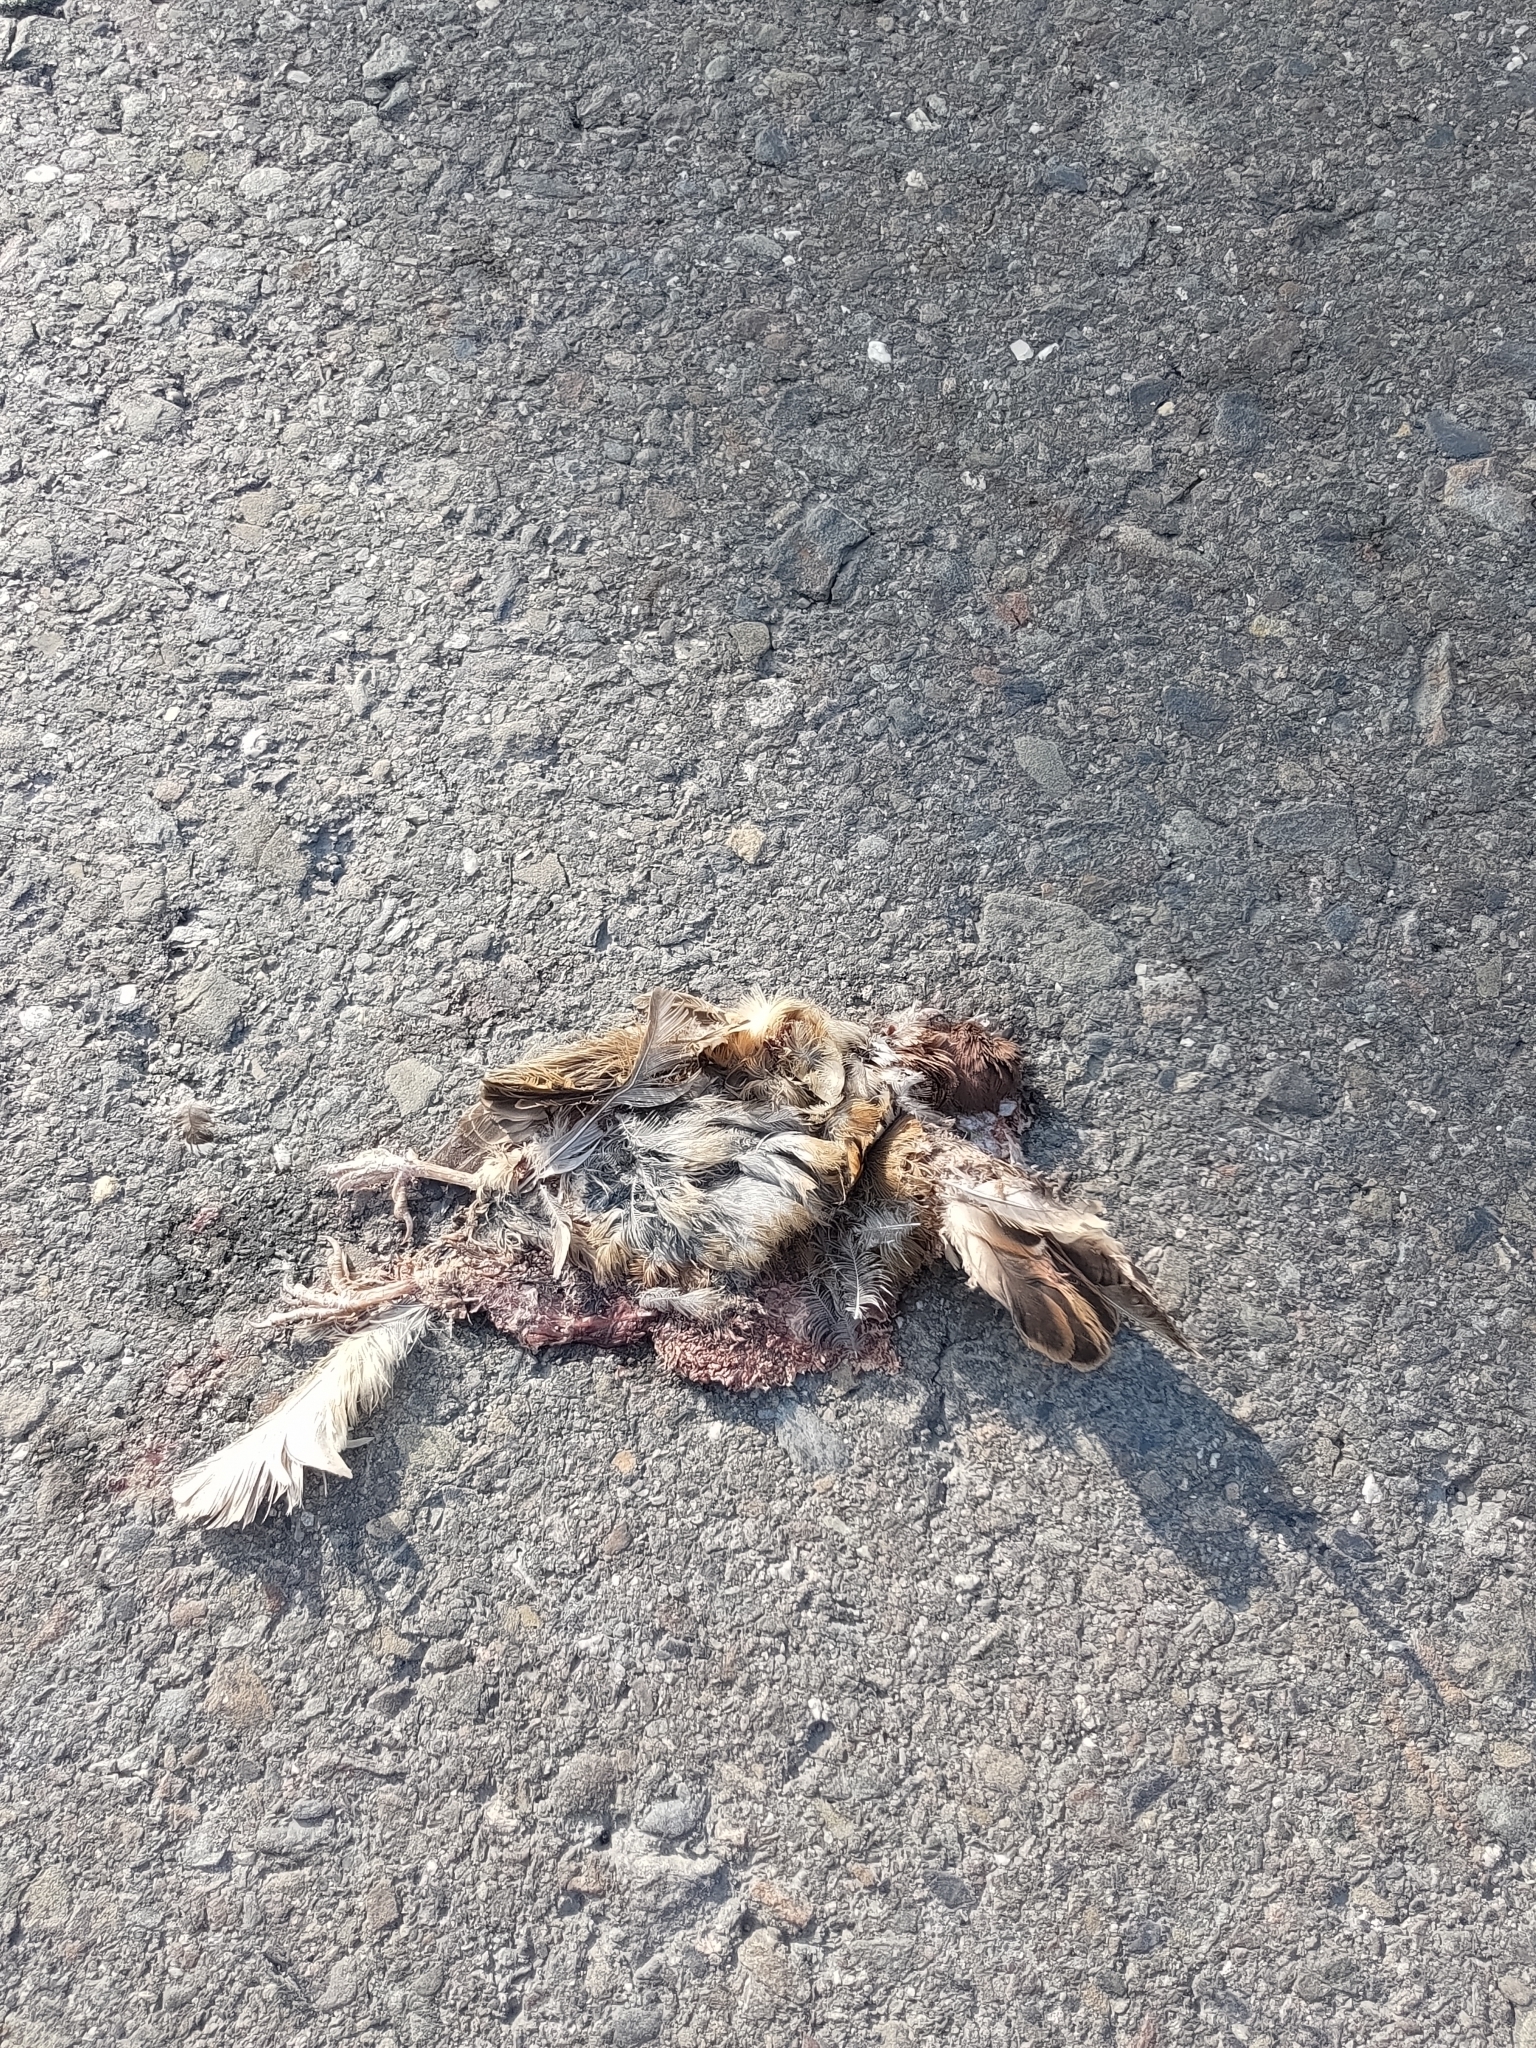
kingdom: Animalia
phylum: Chordata
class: Aves
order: Passeriformes
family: Passeridae
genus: Passer
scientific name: Passer montanus
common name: Eurasian tree sparrow
